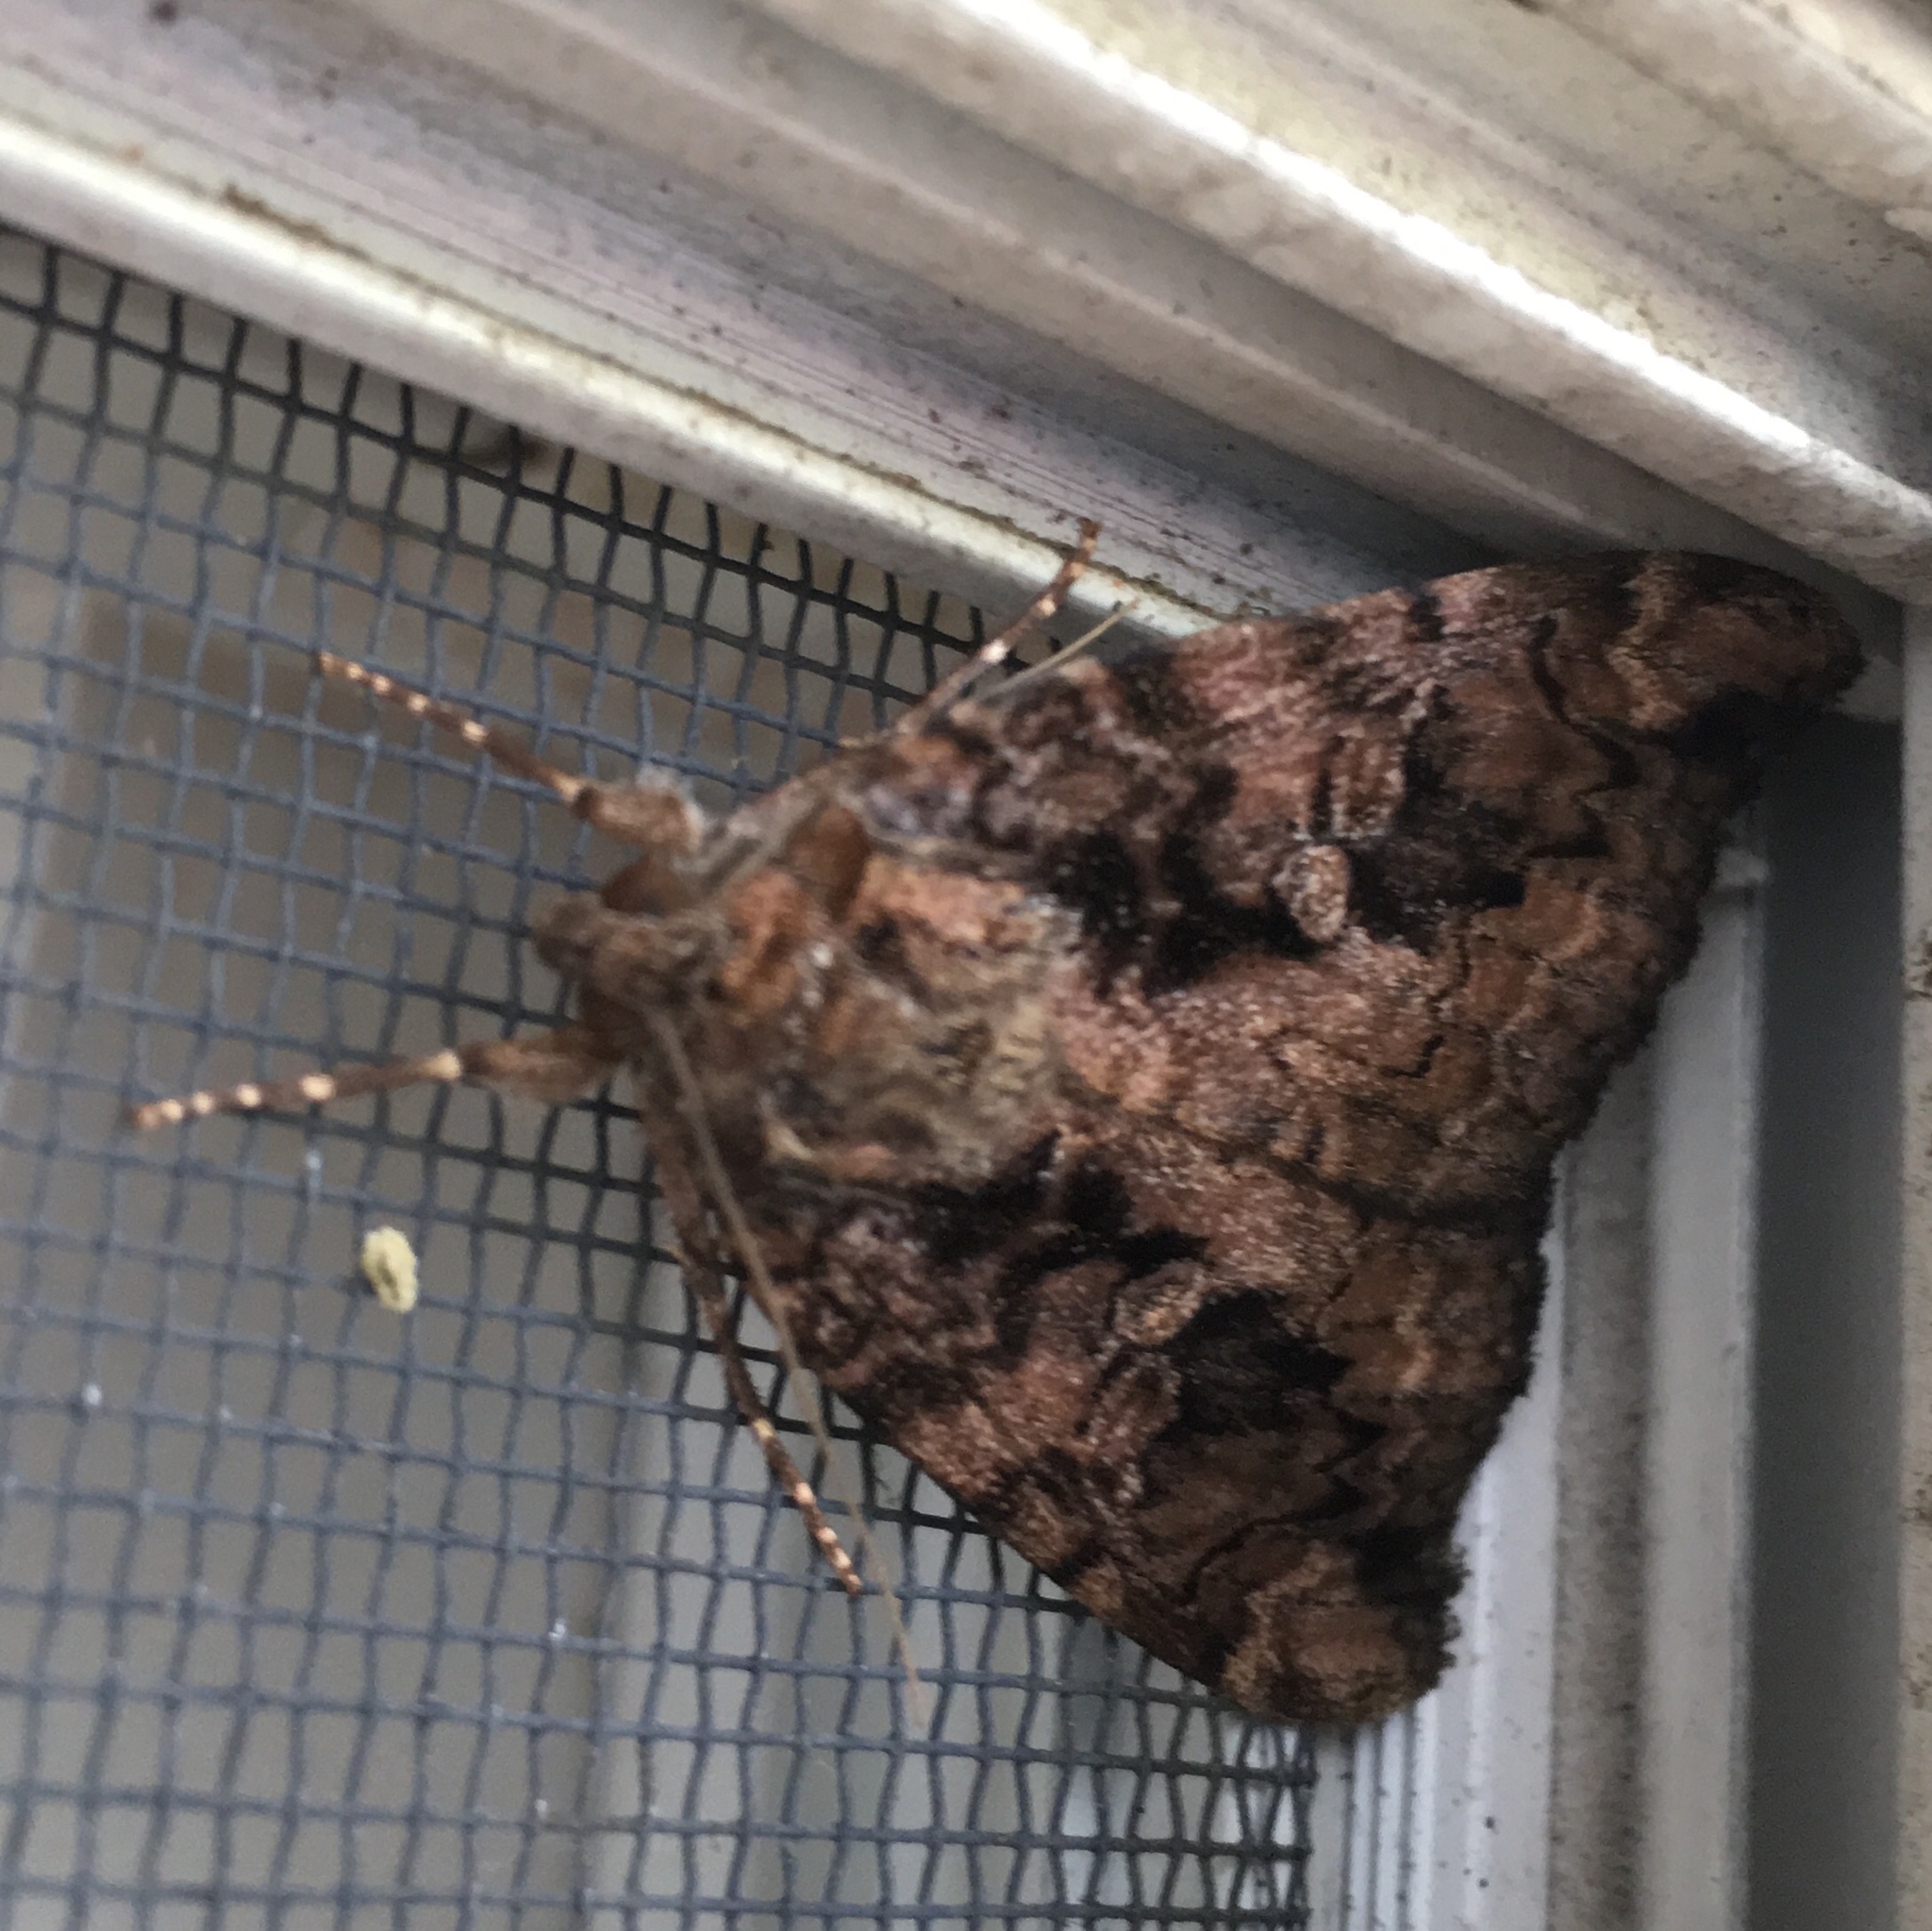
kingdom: Animalia
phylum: Arthropoda
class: Insecta
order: Lepidoptera
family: Erebidae
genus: Catocala
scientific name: Catocala innubens
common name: Betrothed underwing
